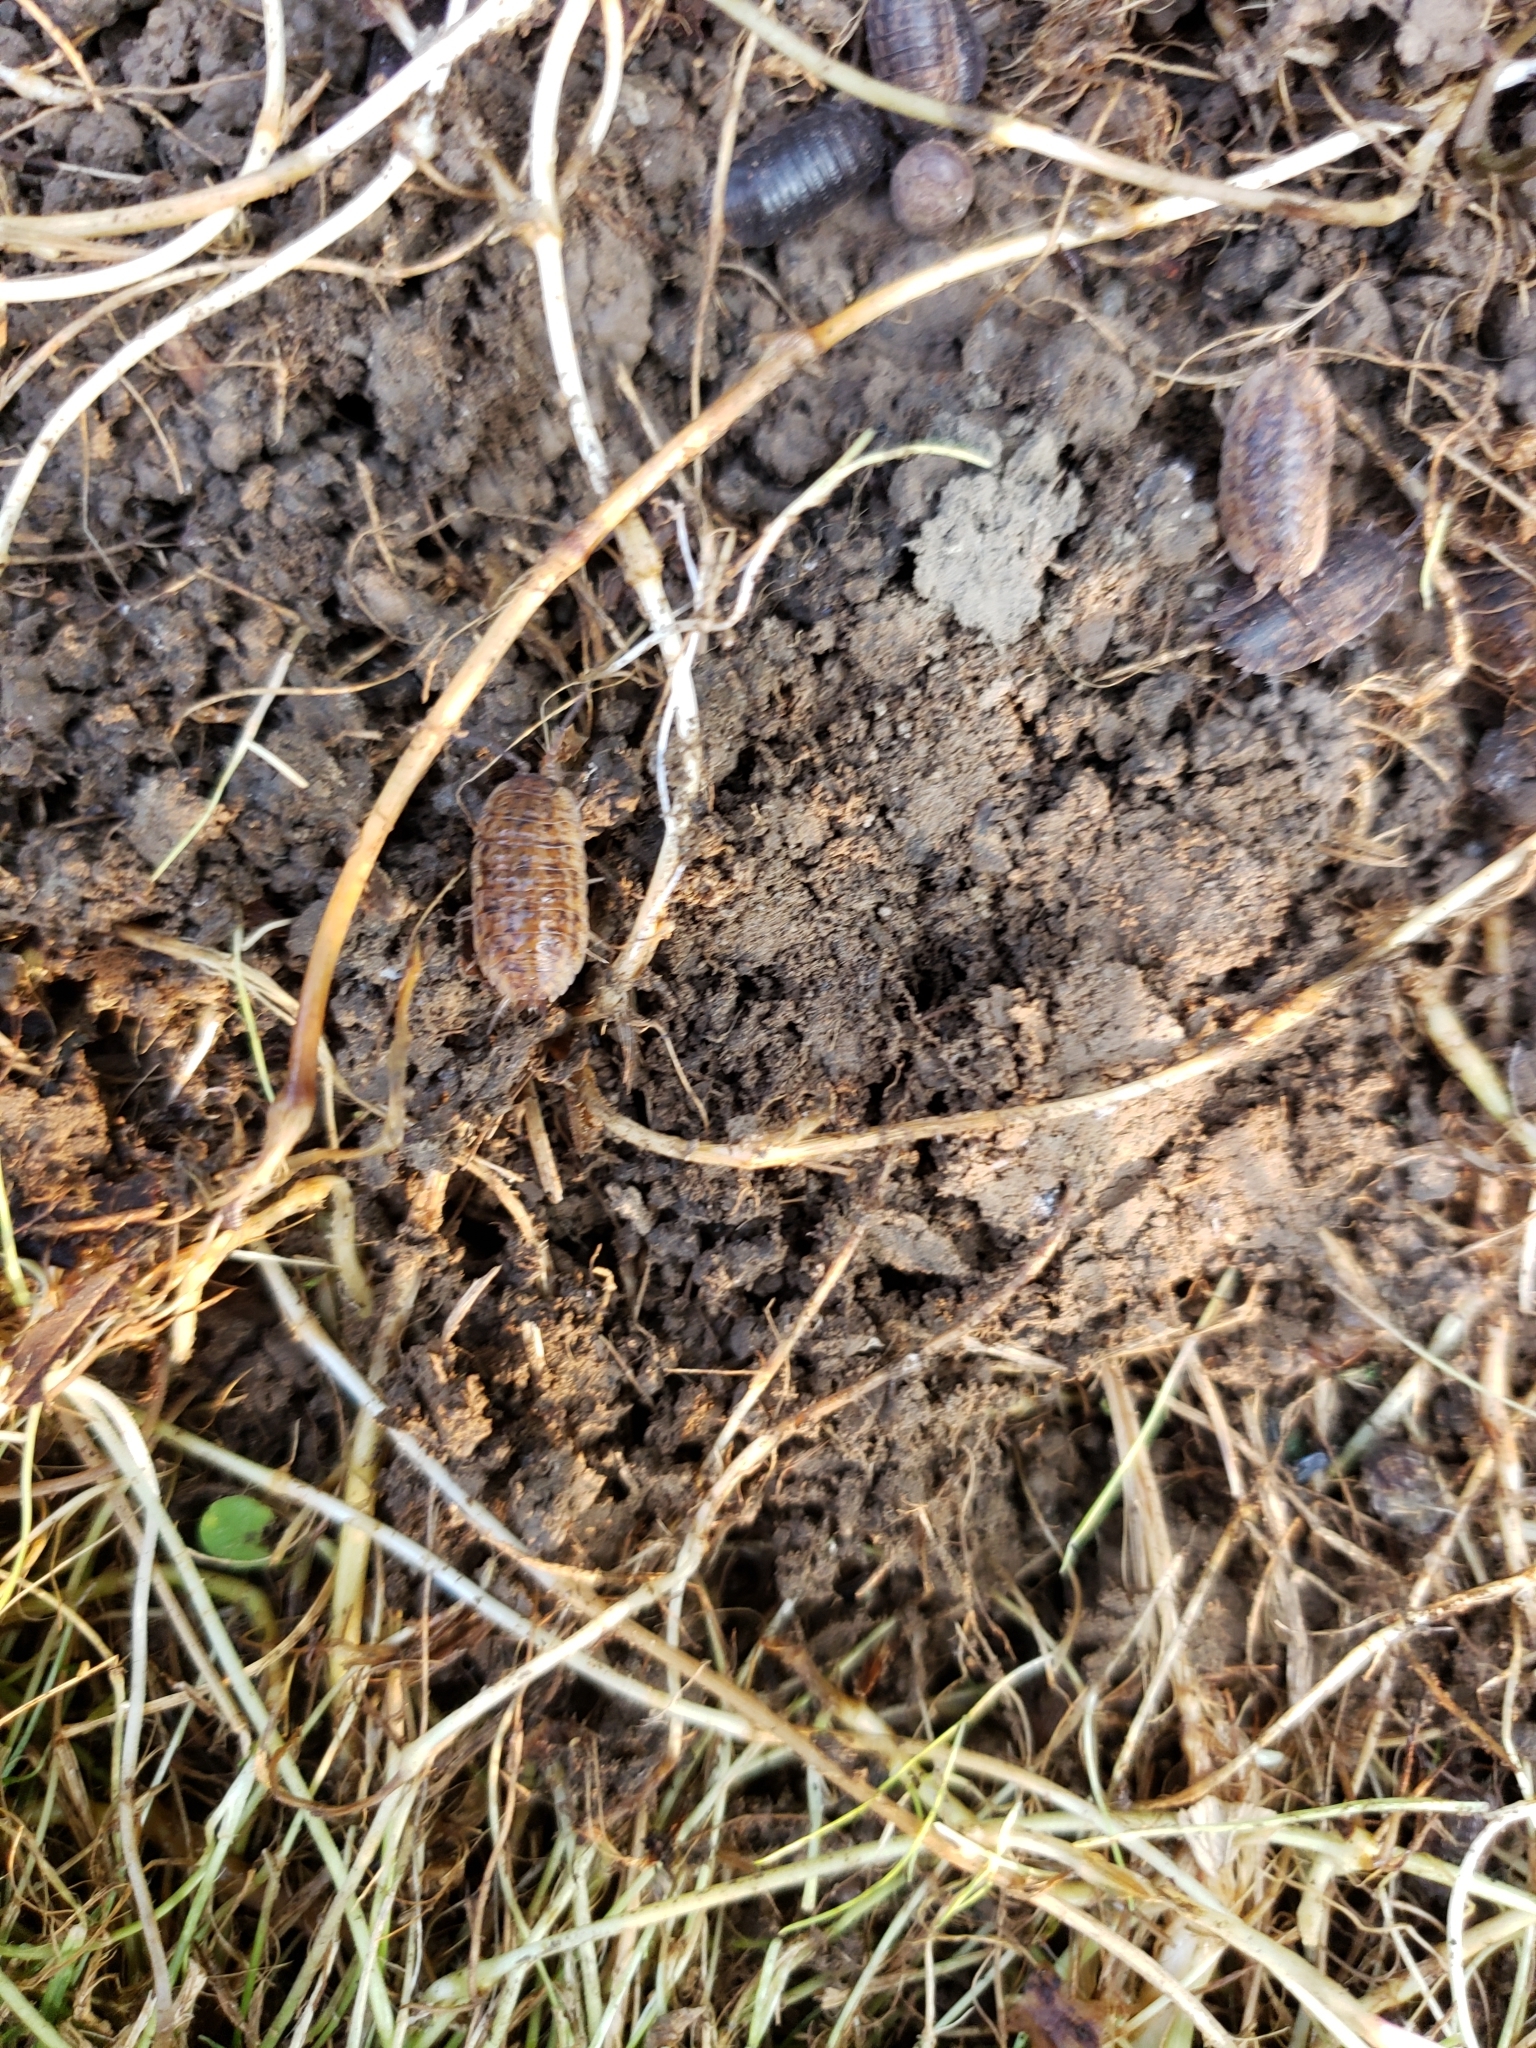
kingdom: Animalia
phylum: Arthropoda
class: Malacostraca
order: Isopoda
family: Trachelipodidae
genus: Trachelipus
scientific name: Trachelipus rathkii
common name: Isopod
